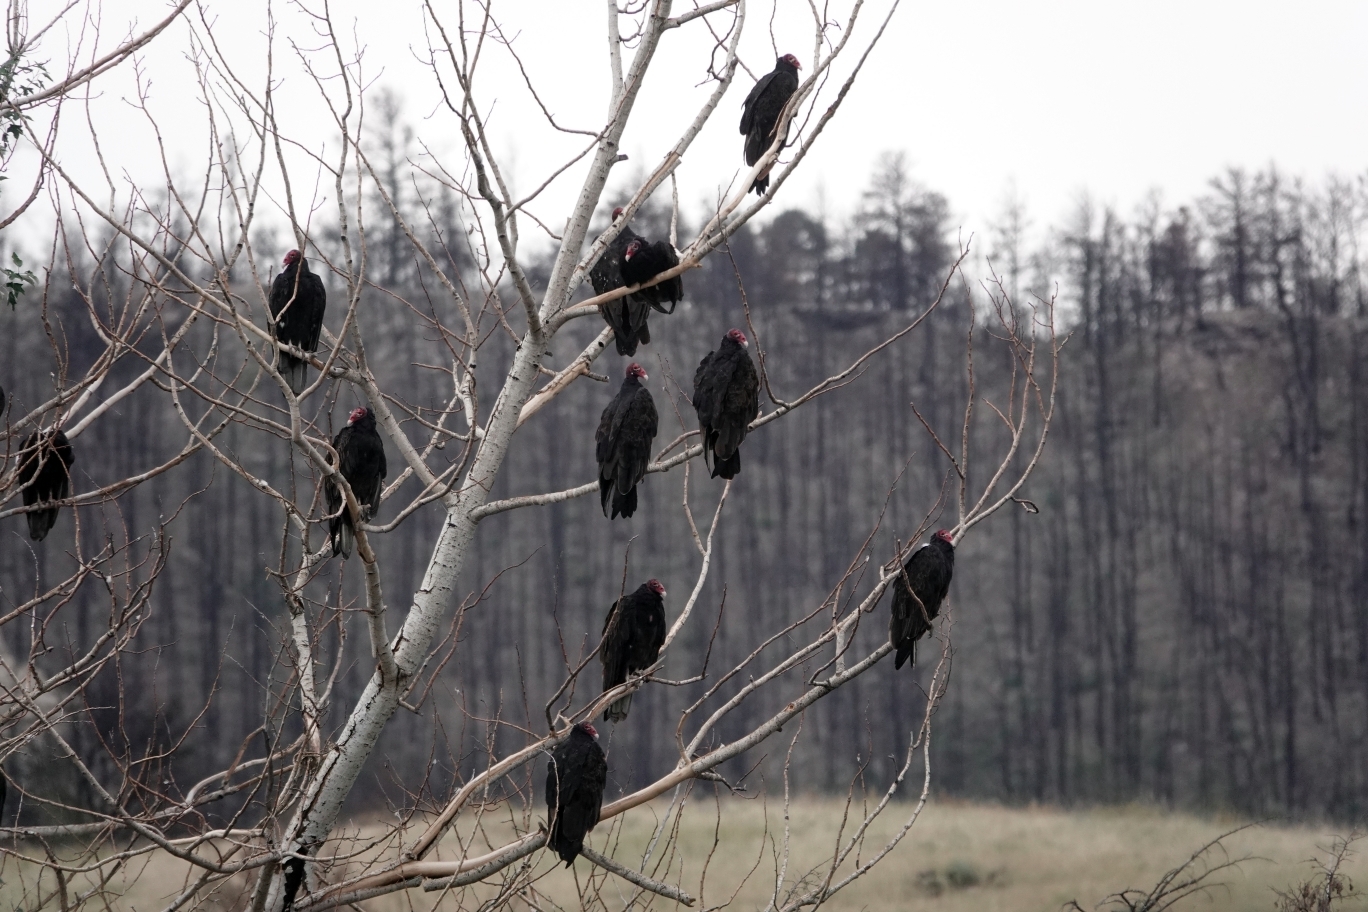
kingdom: Animalia
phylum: Chordata
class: Aves
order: Accipitriformes
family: Cathartidae
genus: Cathartes
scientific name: Cathartes aura
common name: Turkey vulture
